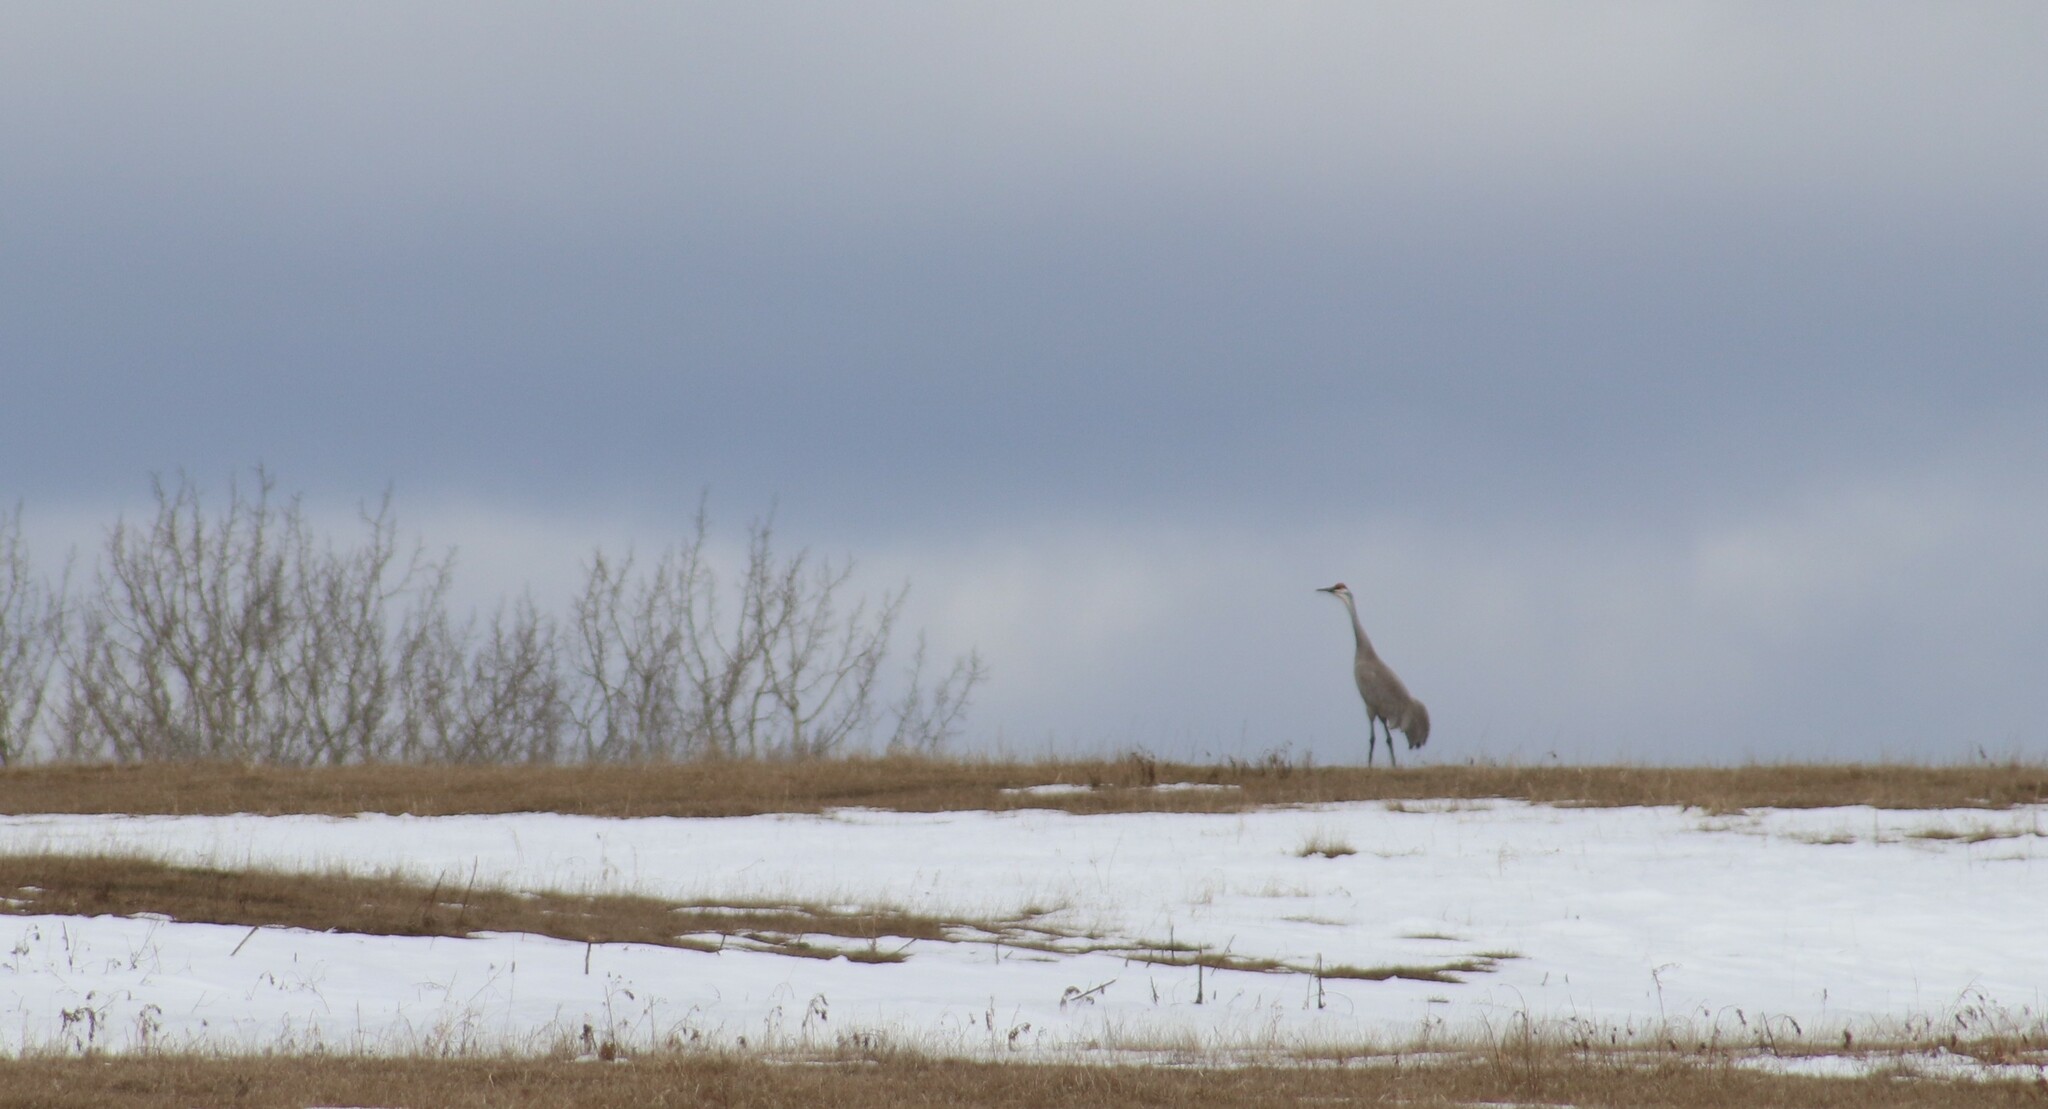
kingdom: Animalia
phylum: Chordata
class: Aves
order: Gruiformes
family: Gruidae
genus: Grus
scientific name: Grus canadensis
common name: Sandhill crane
